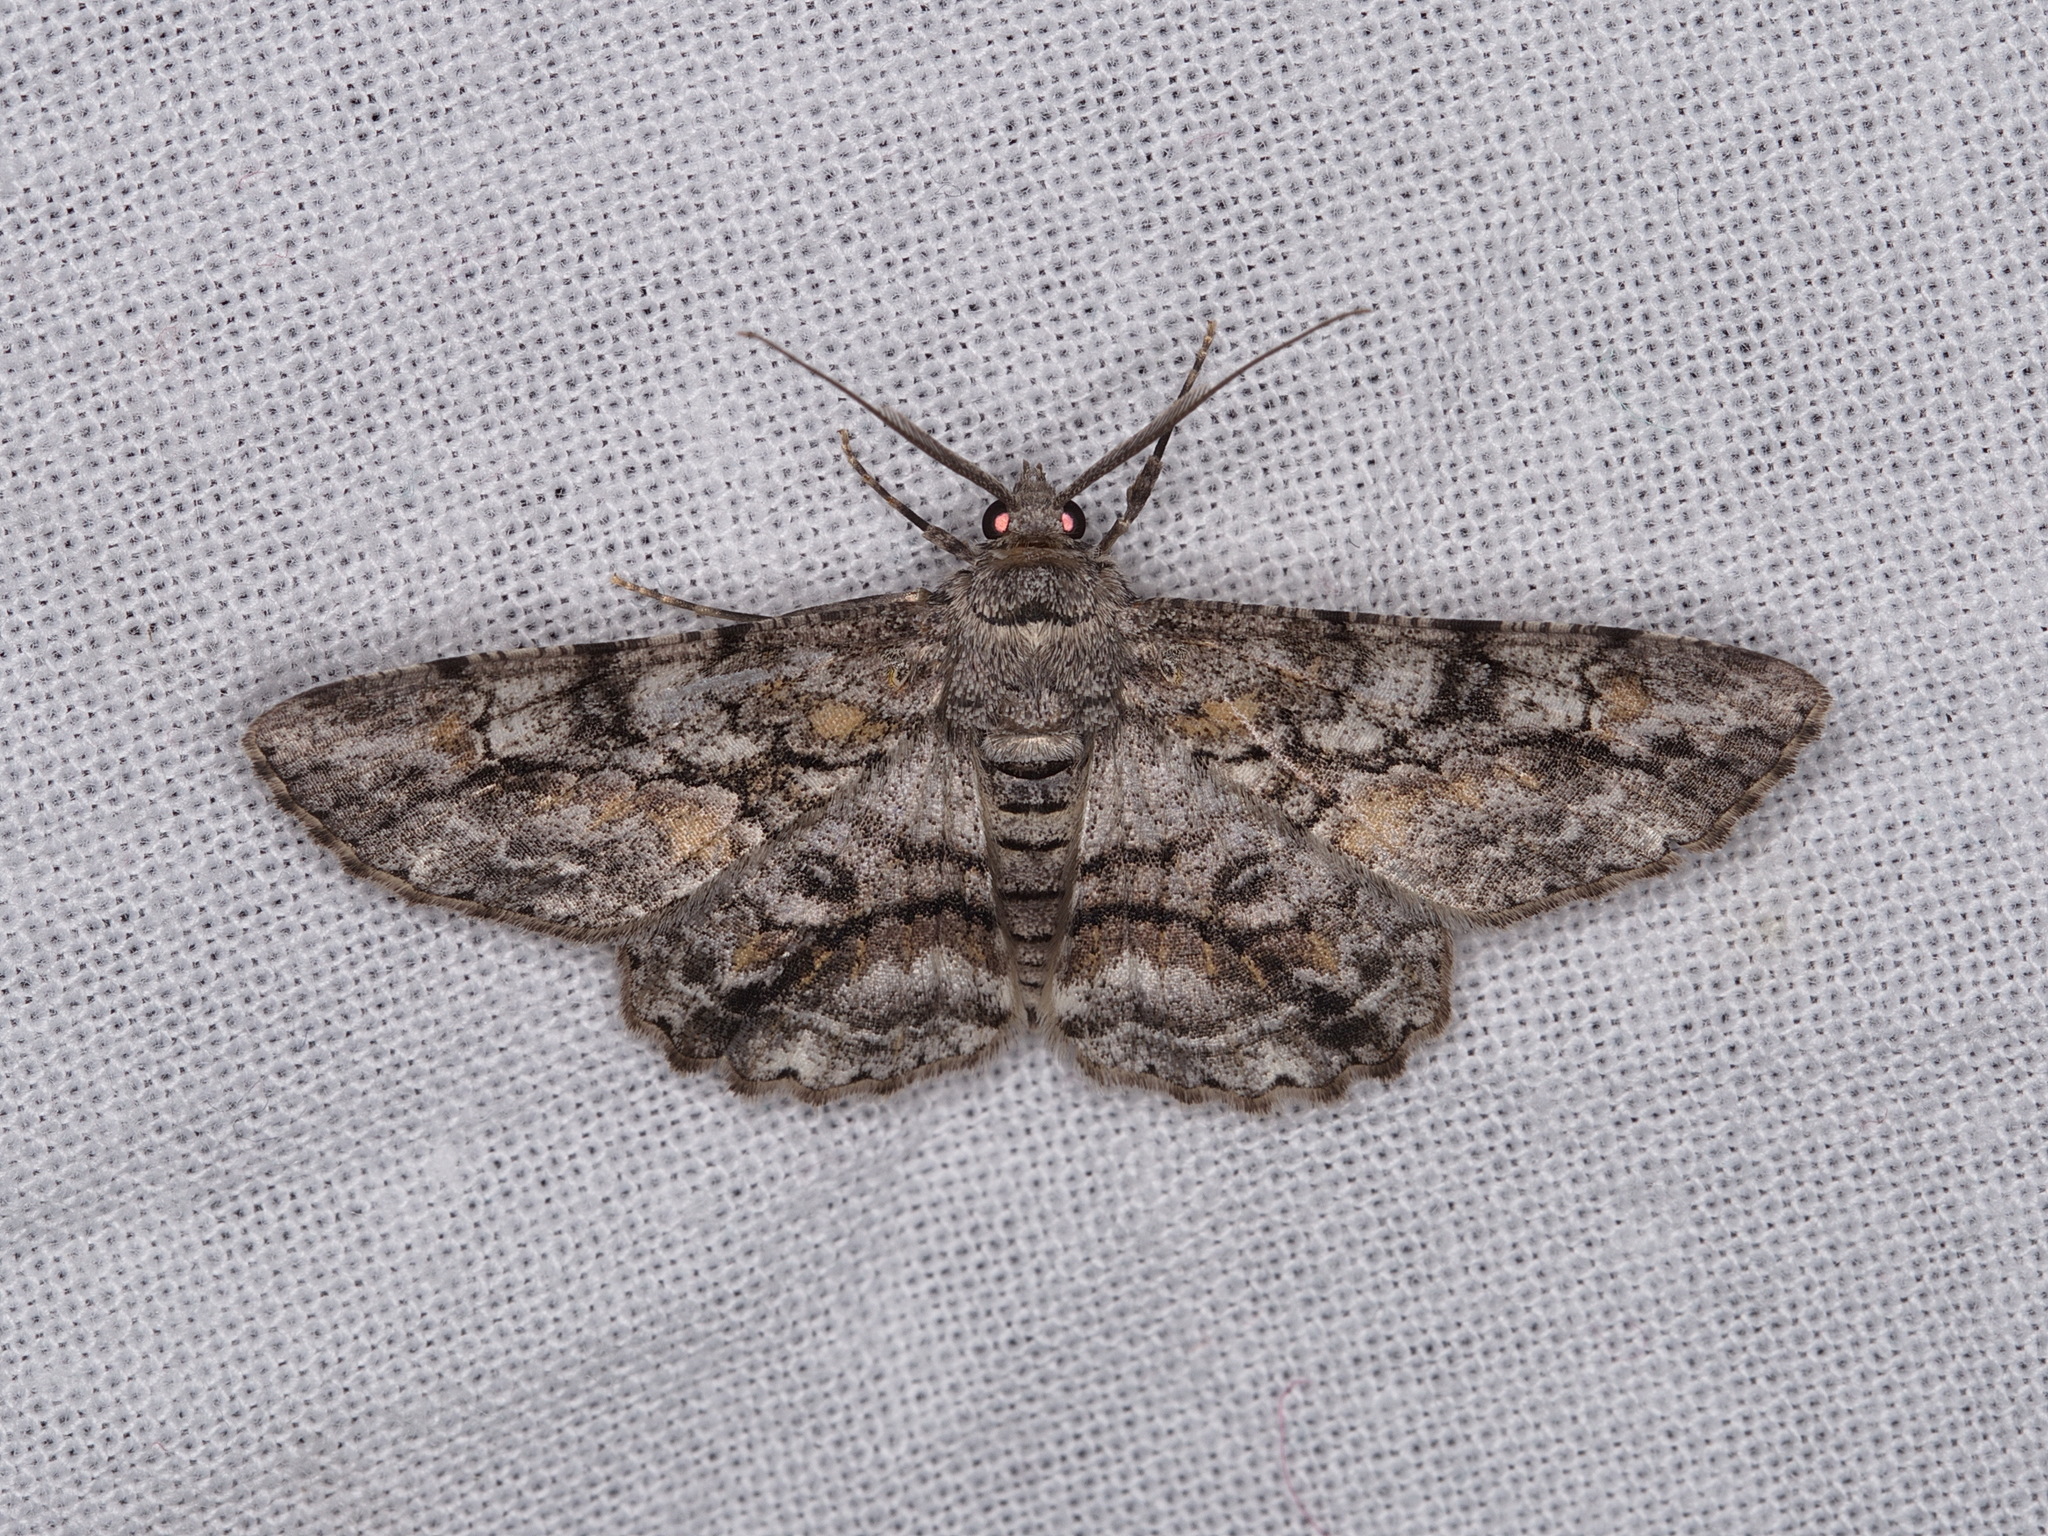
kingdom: Animalia
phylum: Arthropoda
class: Insecta
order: Lepidoptera
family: Geometridae
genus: Cleora
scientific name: Cleora injectaria
